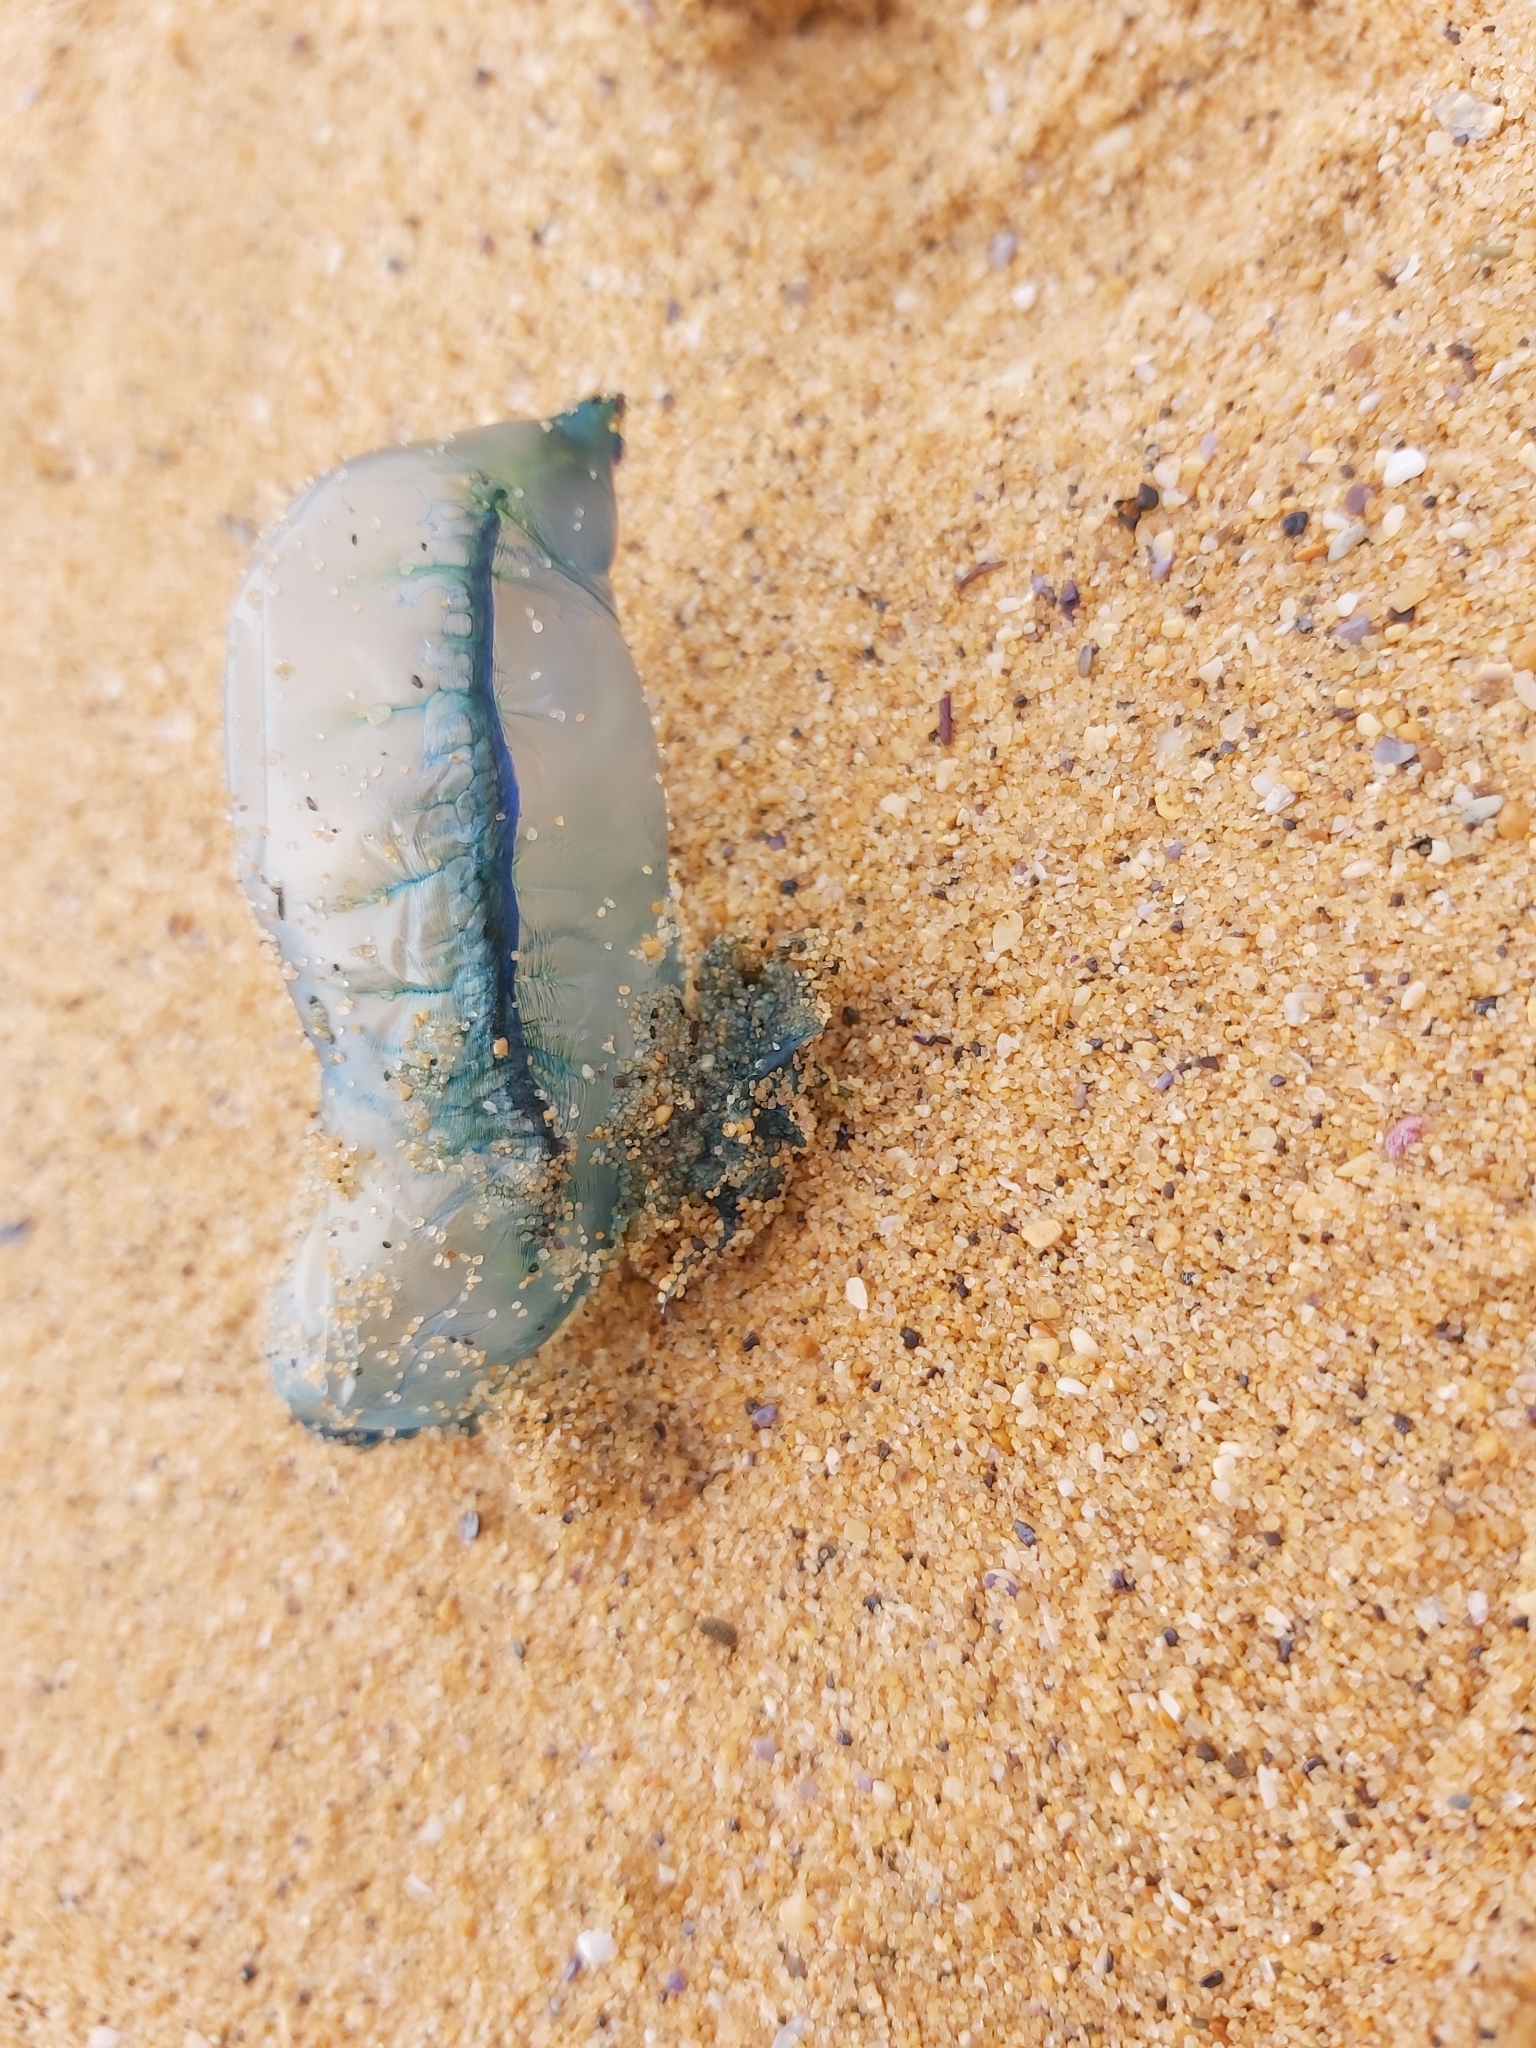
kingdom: Animalia
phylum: Cnidaria
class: Hydrozoa
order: Siphonophorae
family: Physaliidae
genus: Physalia
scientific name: Physalia physalis
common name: Portuguese man-of-war
